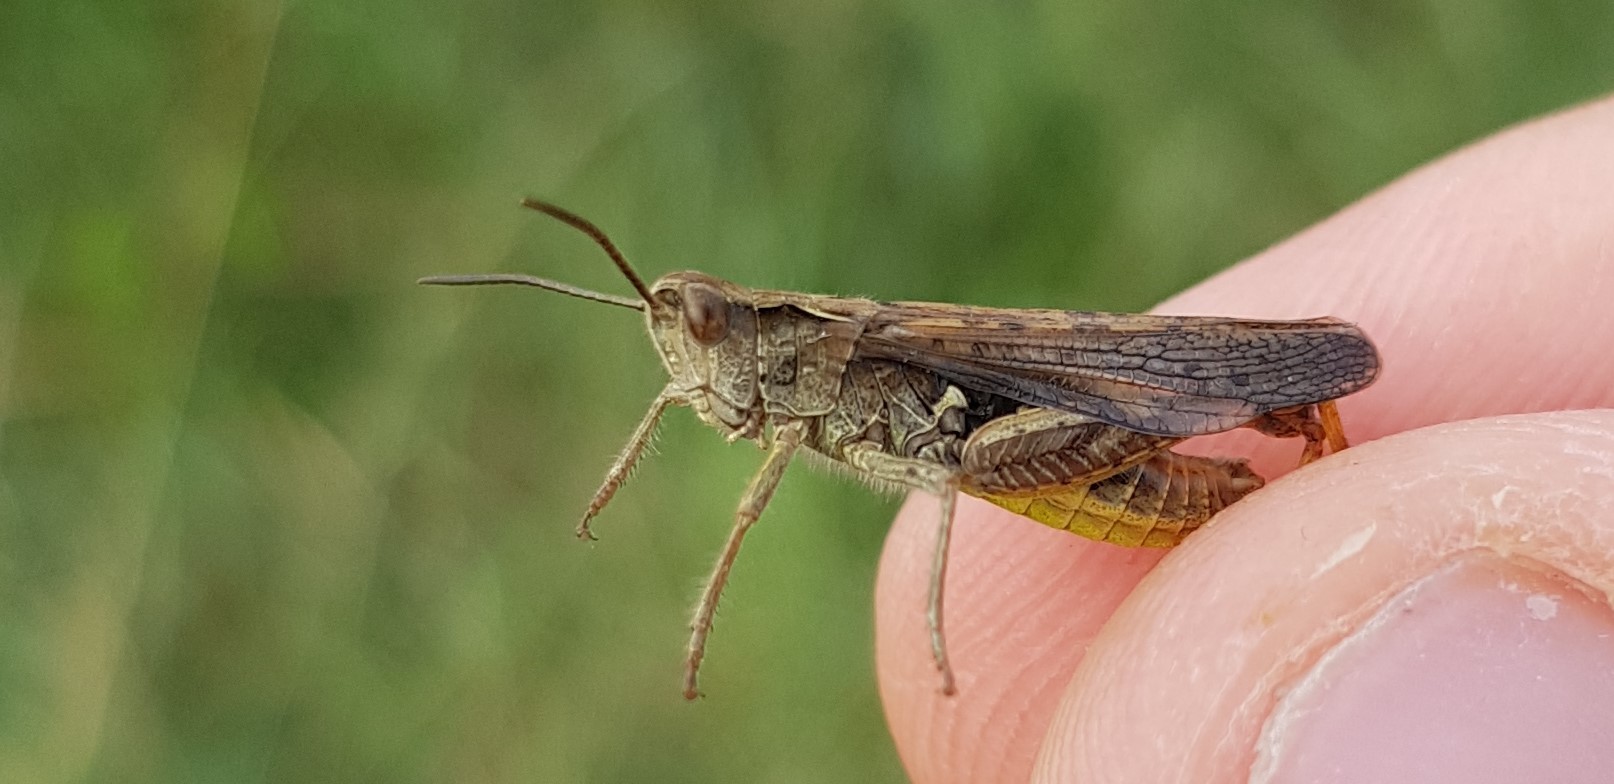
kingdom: Animalia
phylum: Arthropoda
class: Insecta
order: Orthoptera
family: Acrididae
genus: Chorthippus
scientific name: Chorthippus biguttulus
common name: Bow-winged grasshopper
